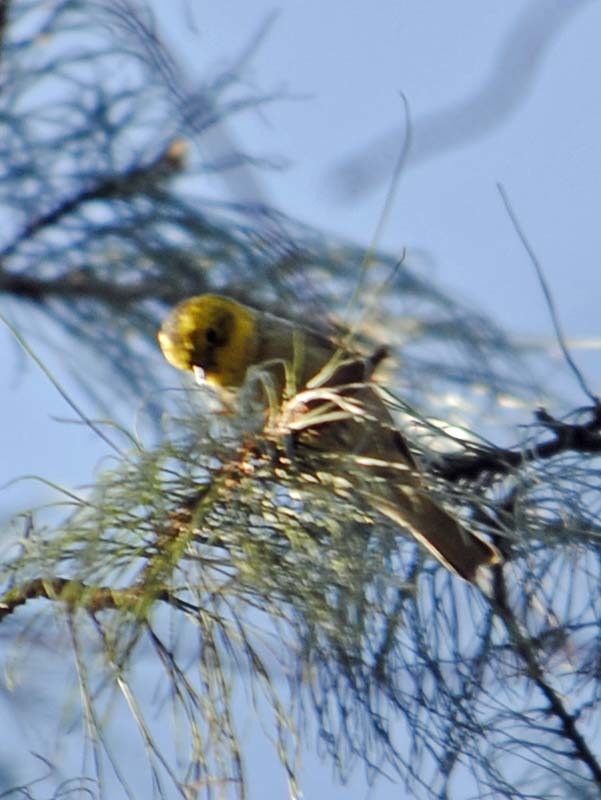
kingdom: Animalia
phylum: Chordata
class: Aves
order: Passeriformes
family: Parulidae
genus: Setophaga
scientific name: Setophaga occidentalis
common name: Hermit warbler
